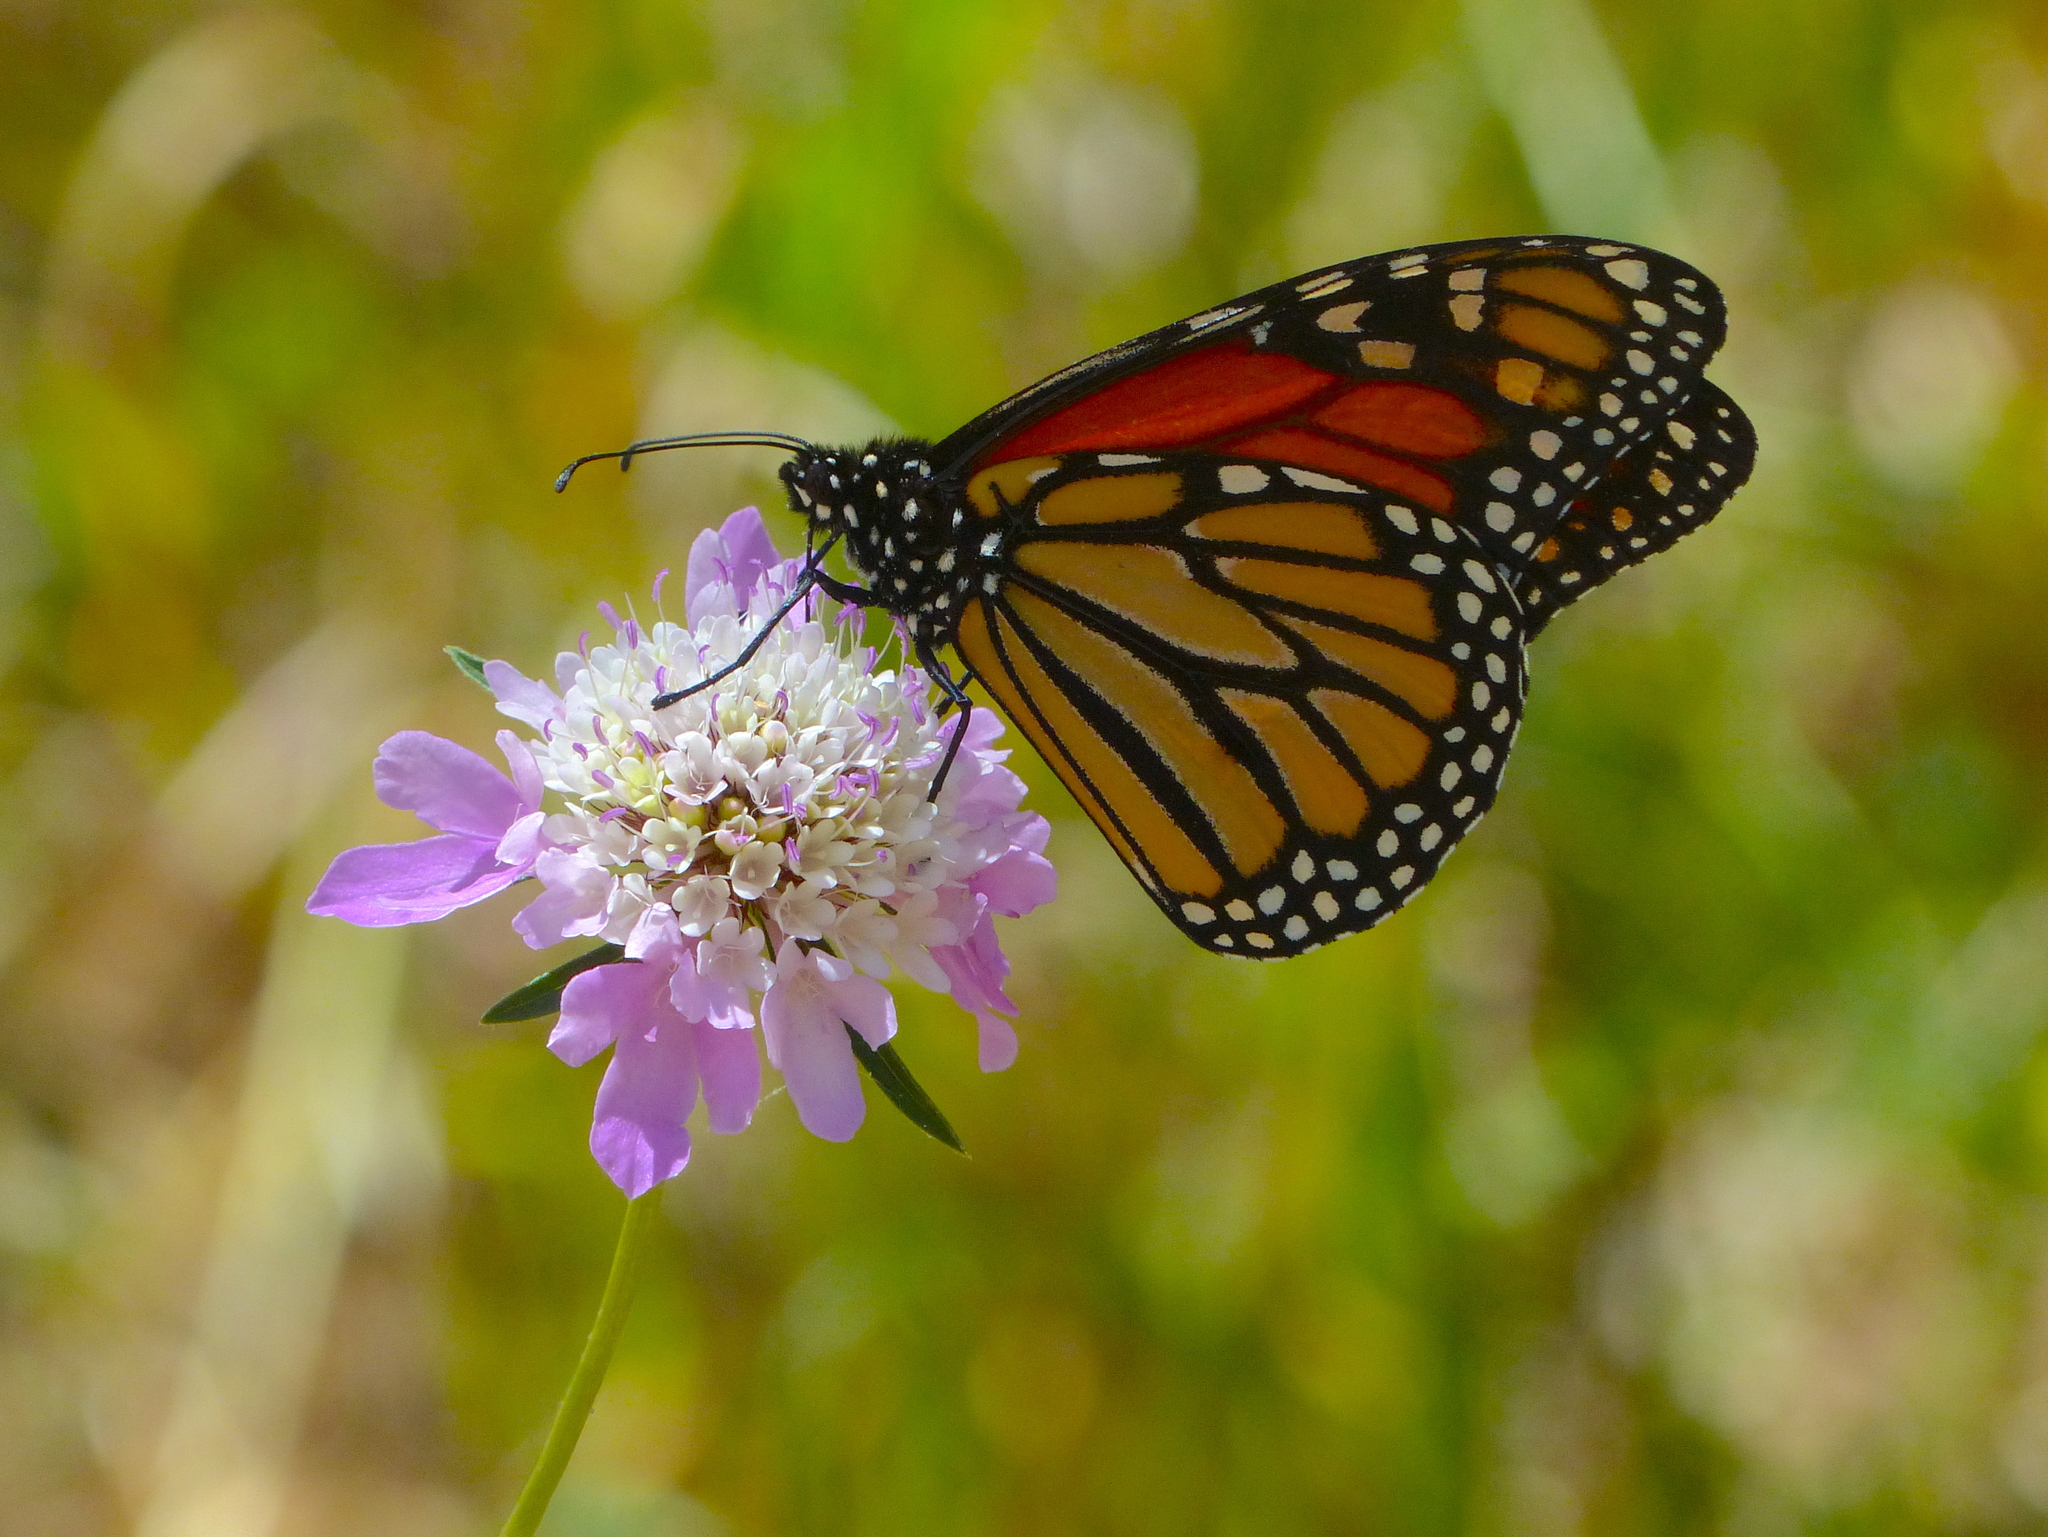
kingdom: Animalia
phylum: Arthropoda
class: Insecta
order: Lepidoptera
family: Nymphalidae
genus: Danaus
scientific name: Danaus plexippus
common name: Monarch
